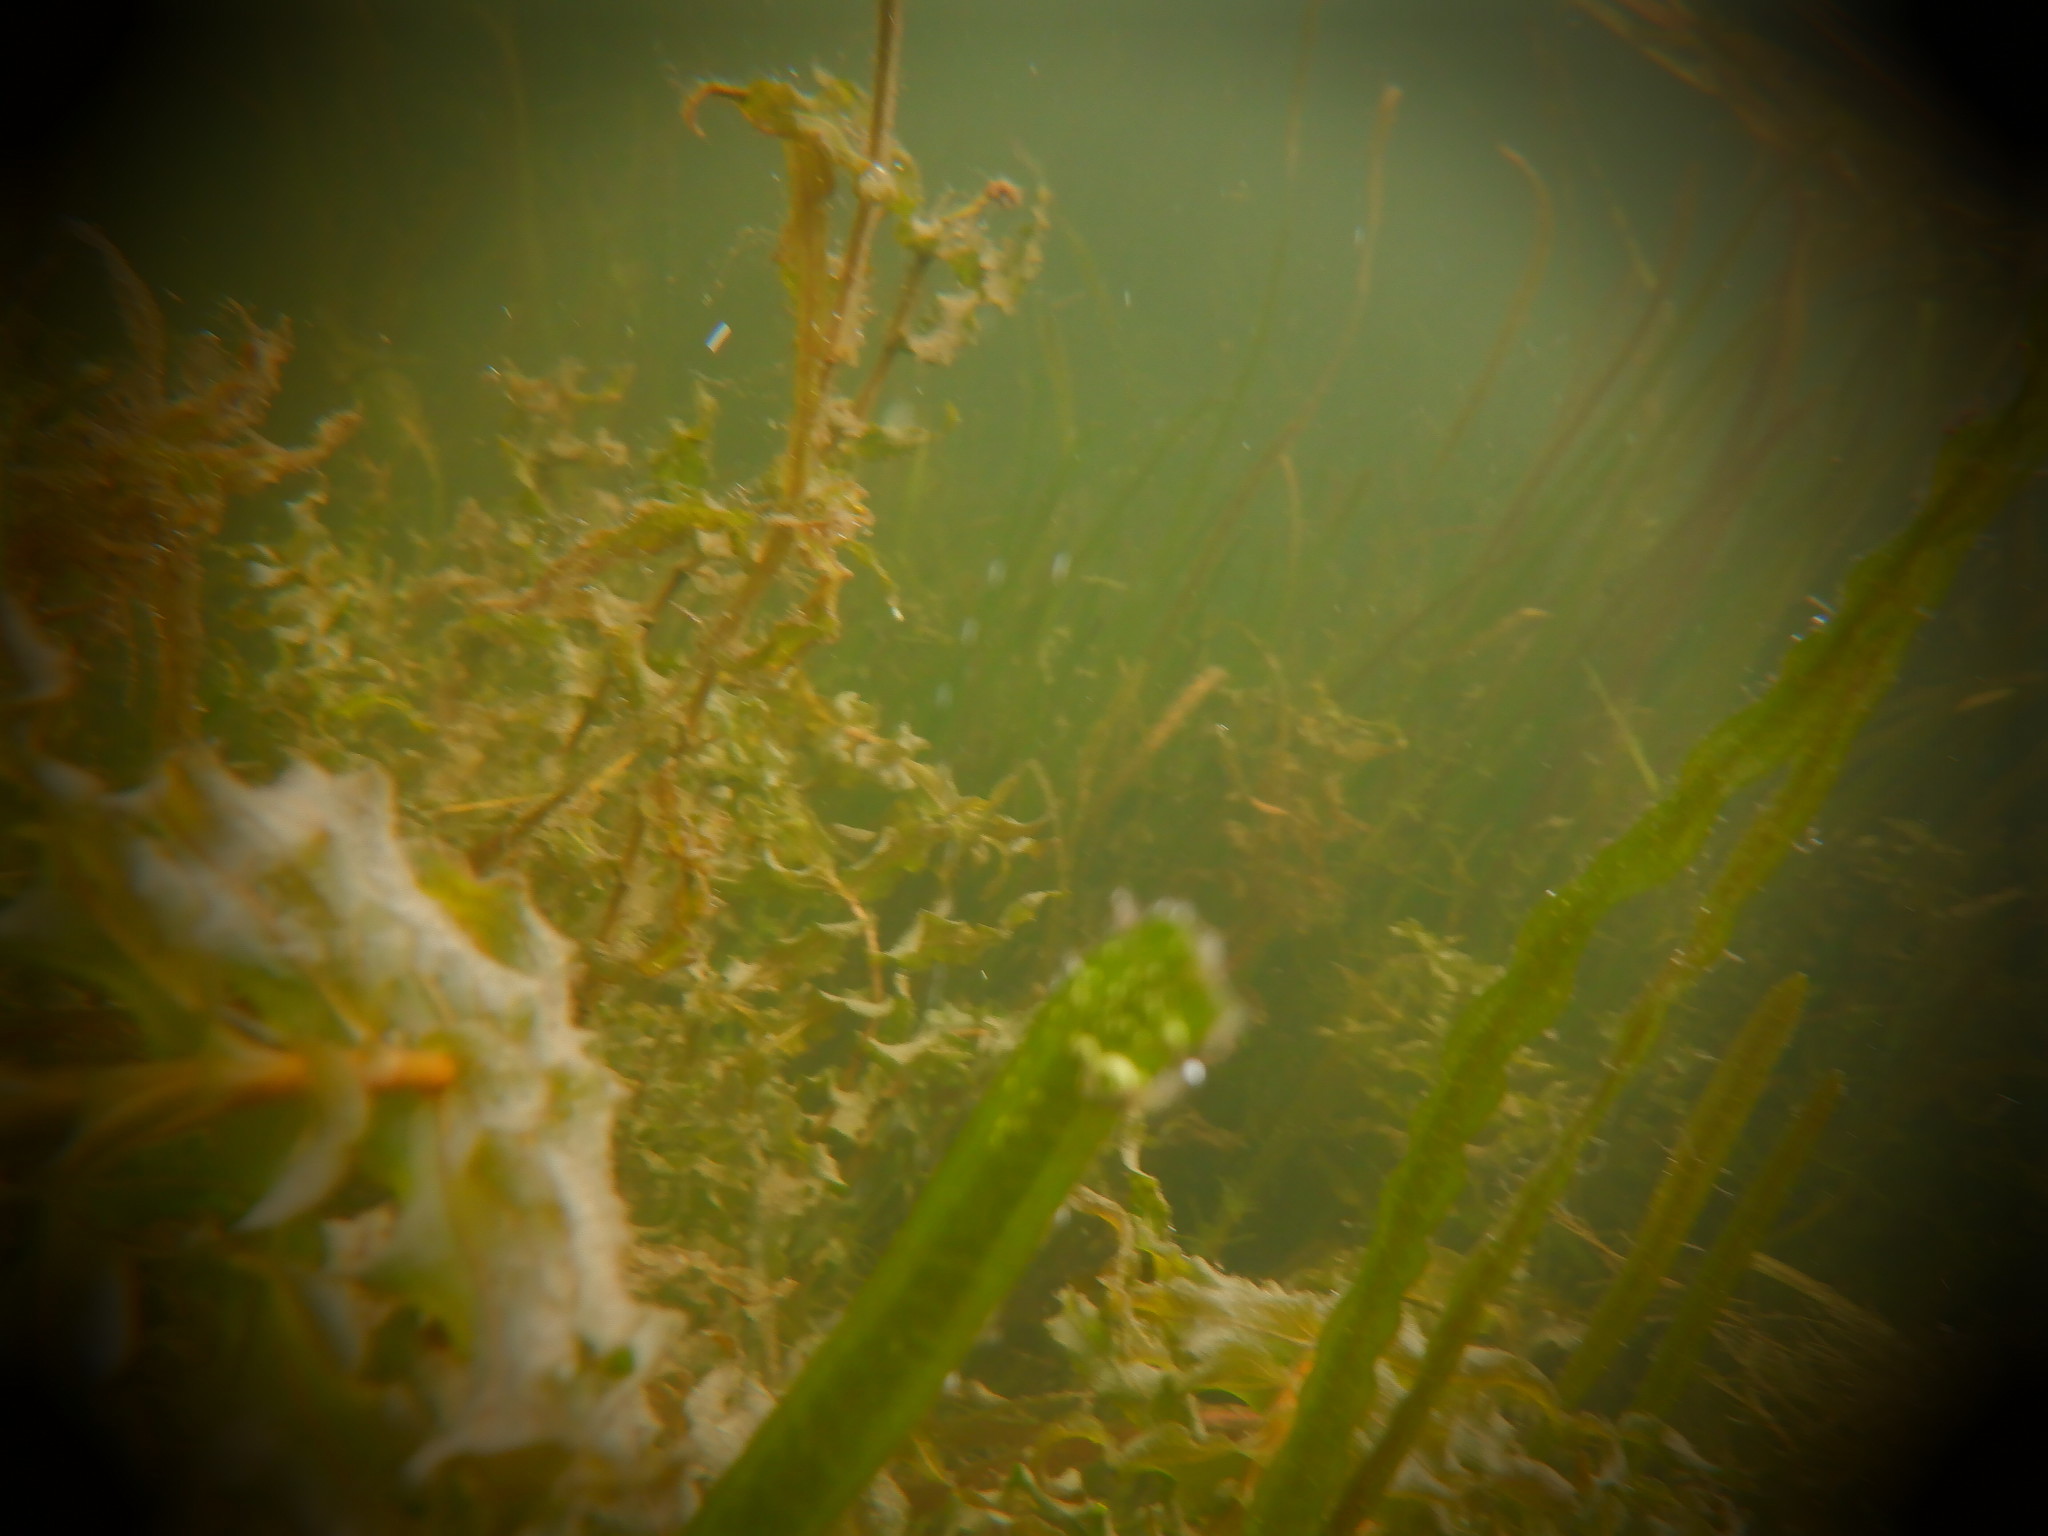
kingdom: Plantae
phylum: Tracheophyta
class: Liliopsida
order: Alismatales
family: Potamogetonaceae
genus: Potamogeton
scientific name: Potamogeton richardsonii
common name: Richardson's pondweed
